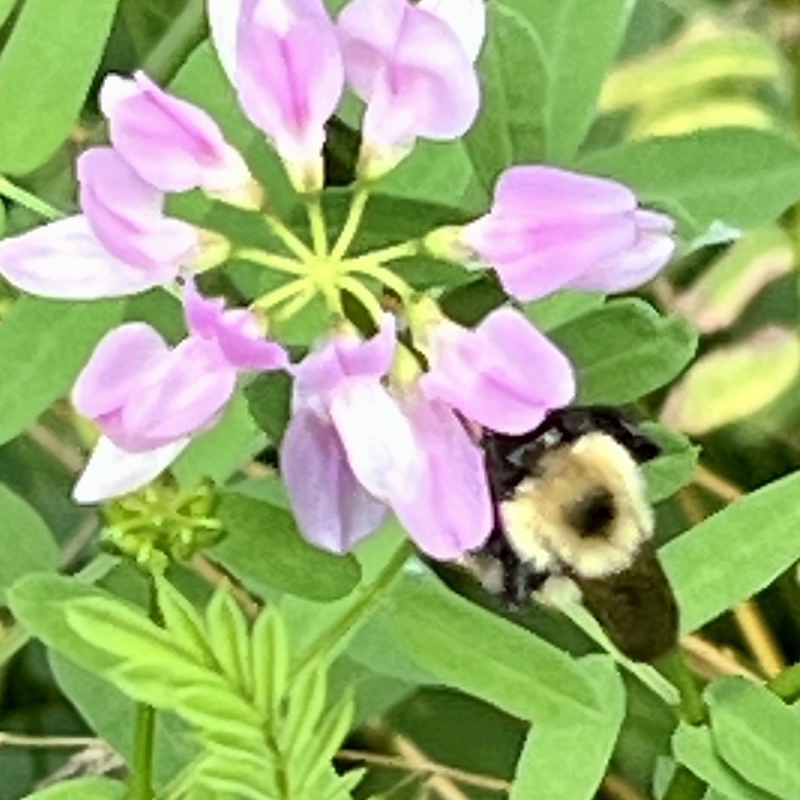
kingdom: Animalia
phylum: Arthropoda
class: Insecta
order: Hymenoptera
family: Apidae
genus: Bombus
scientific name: Bombus bimaculatus
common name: Two-spotted bumble bee
